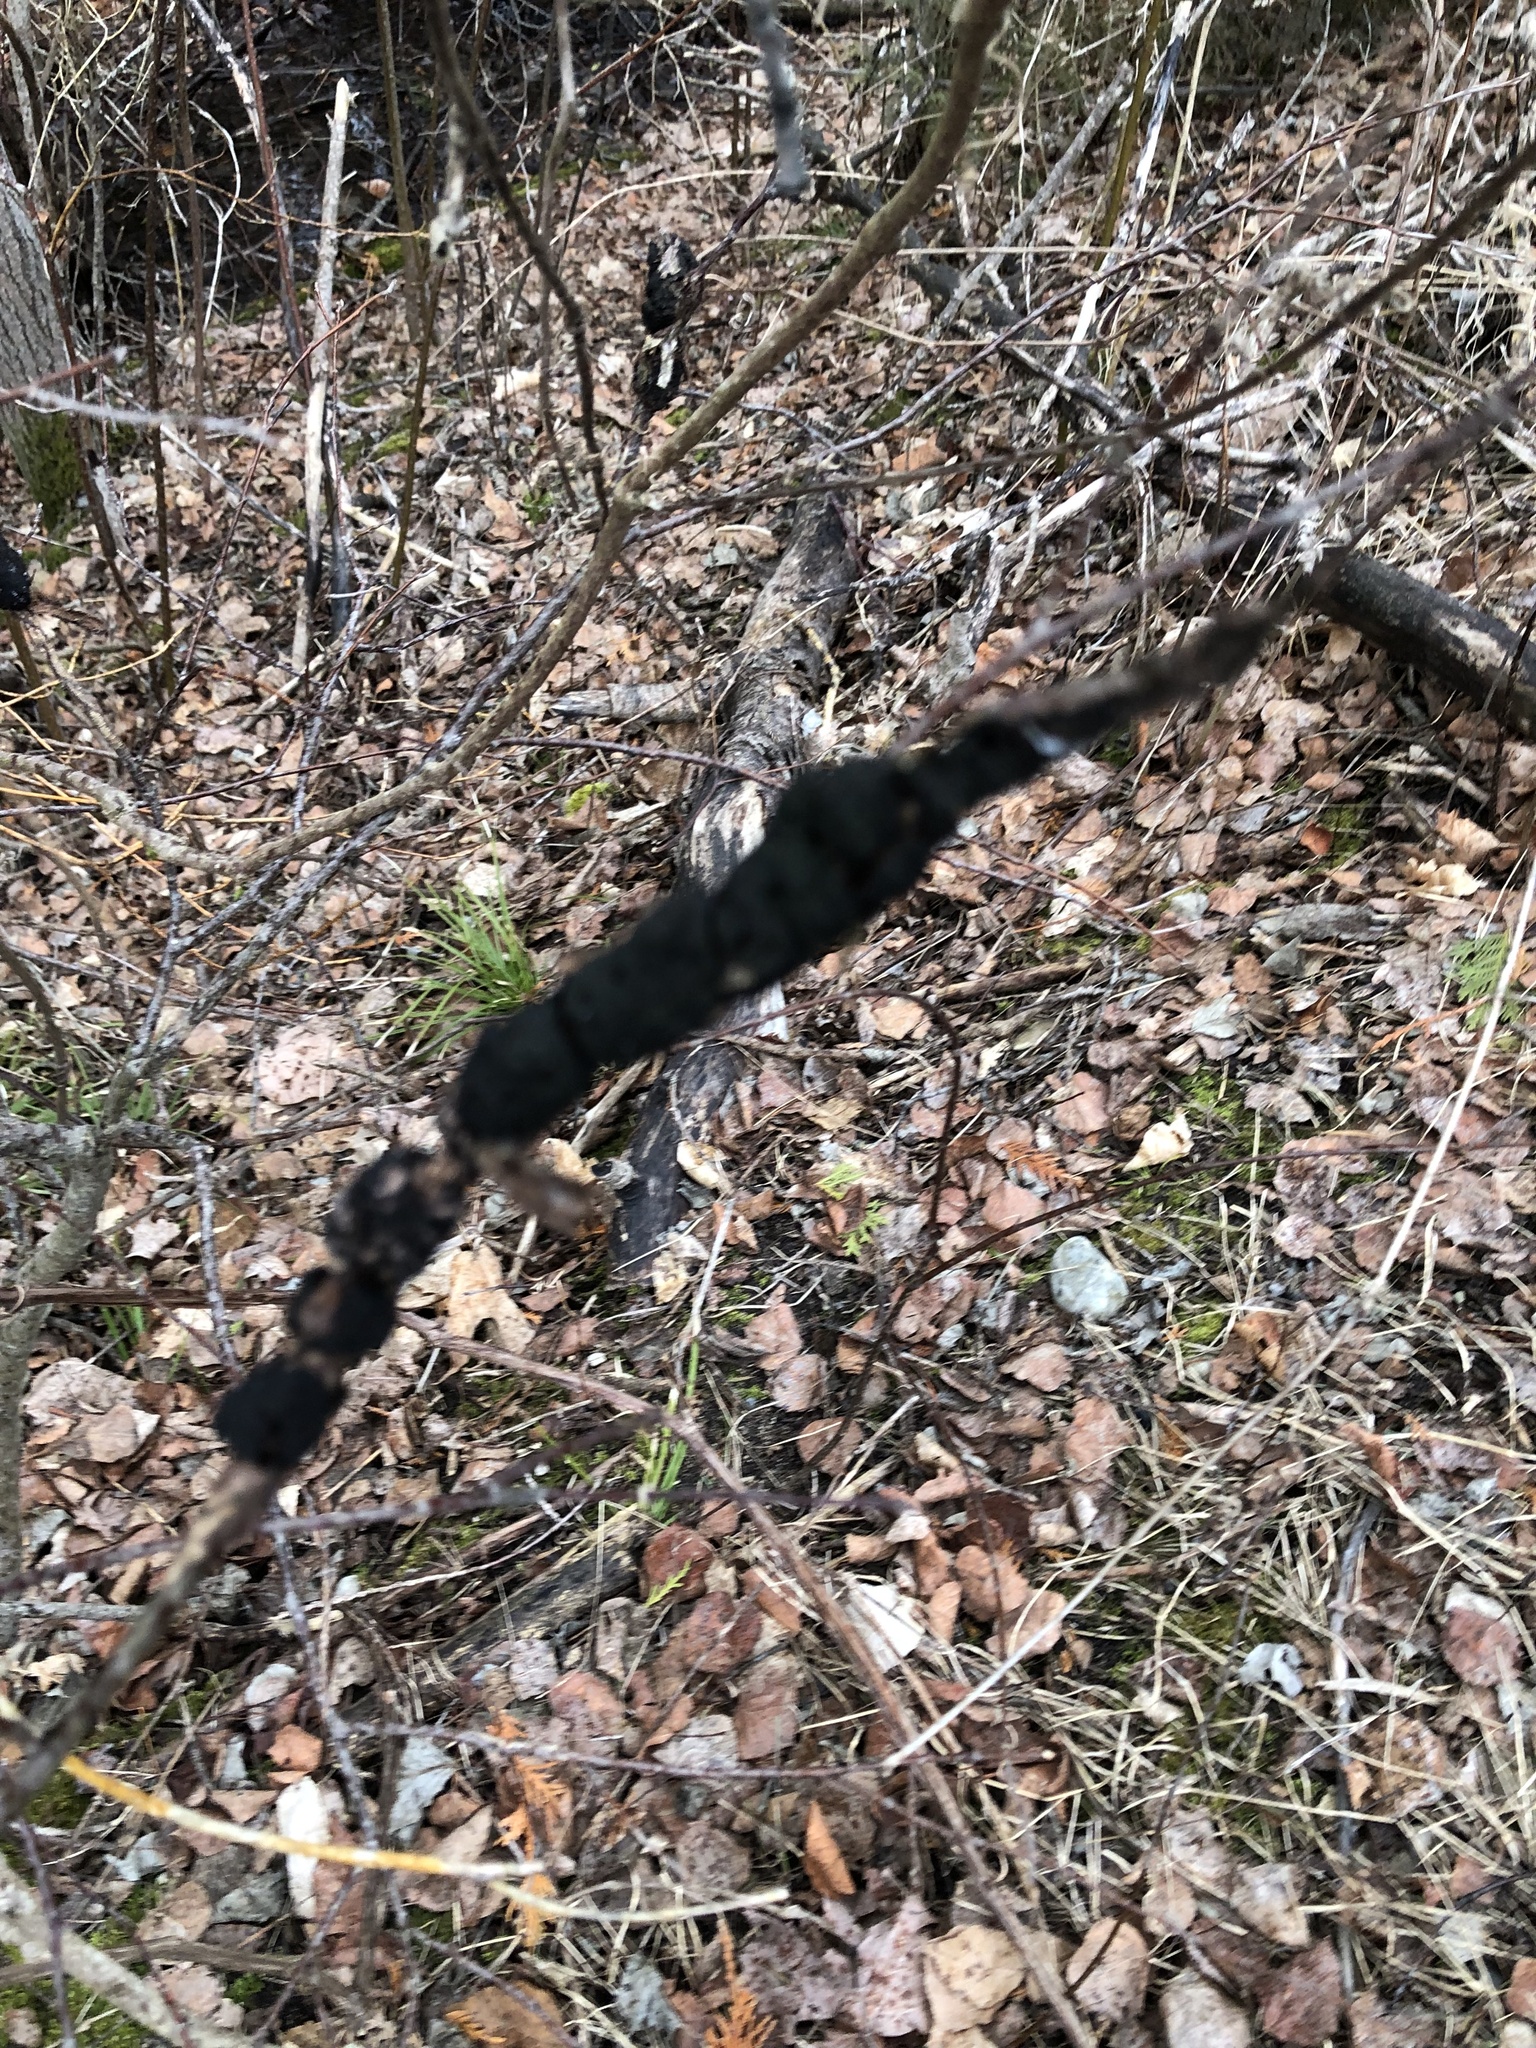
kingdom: Fungi
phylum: Ascomycota
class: Dothideomycetes
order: Venturiales
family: Venturiaceae
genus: Apiosporina
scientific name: Apiosporina morbosa
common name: Black knot
